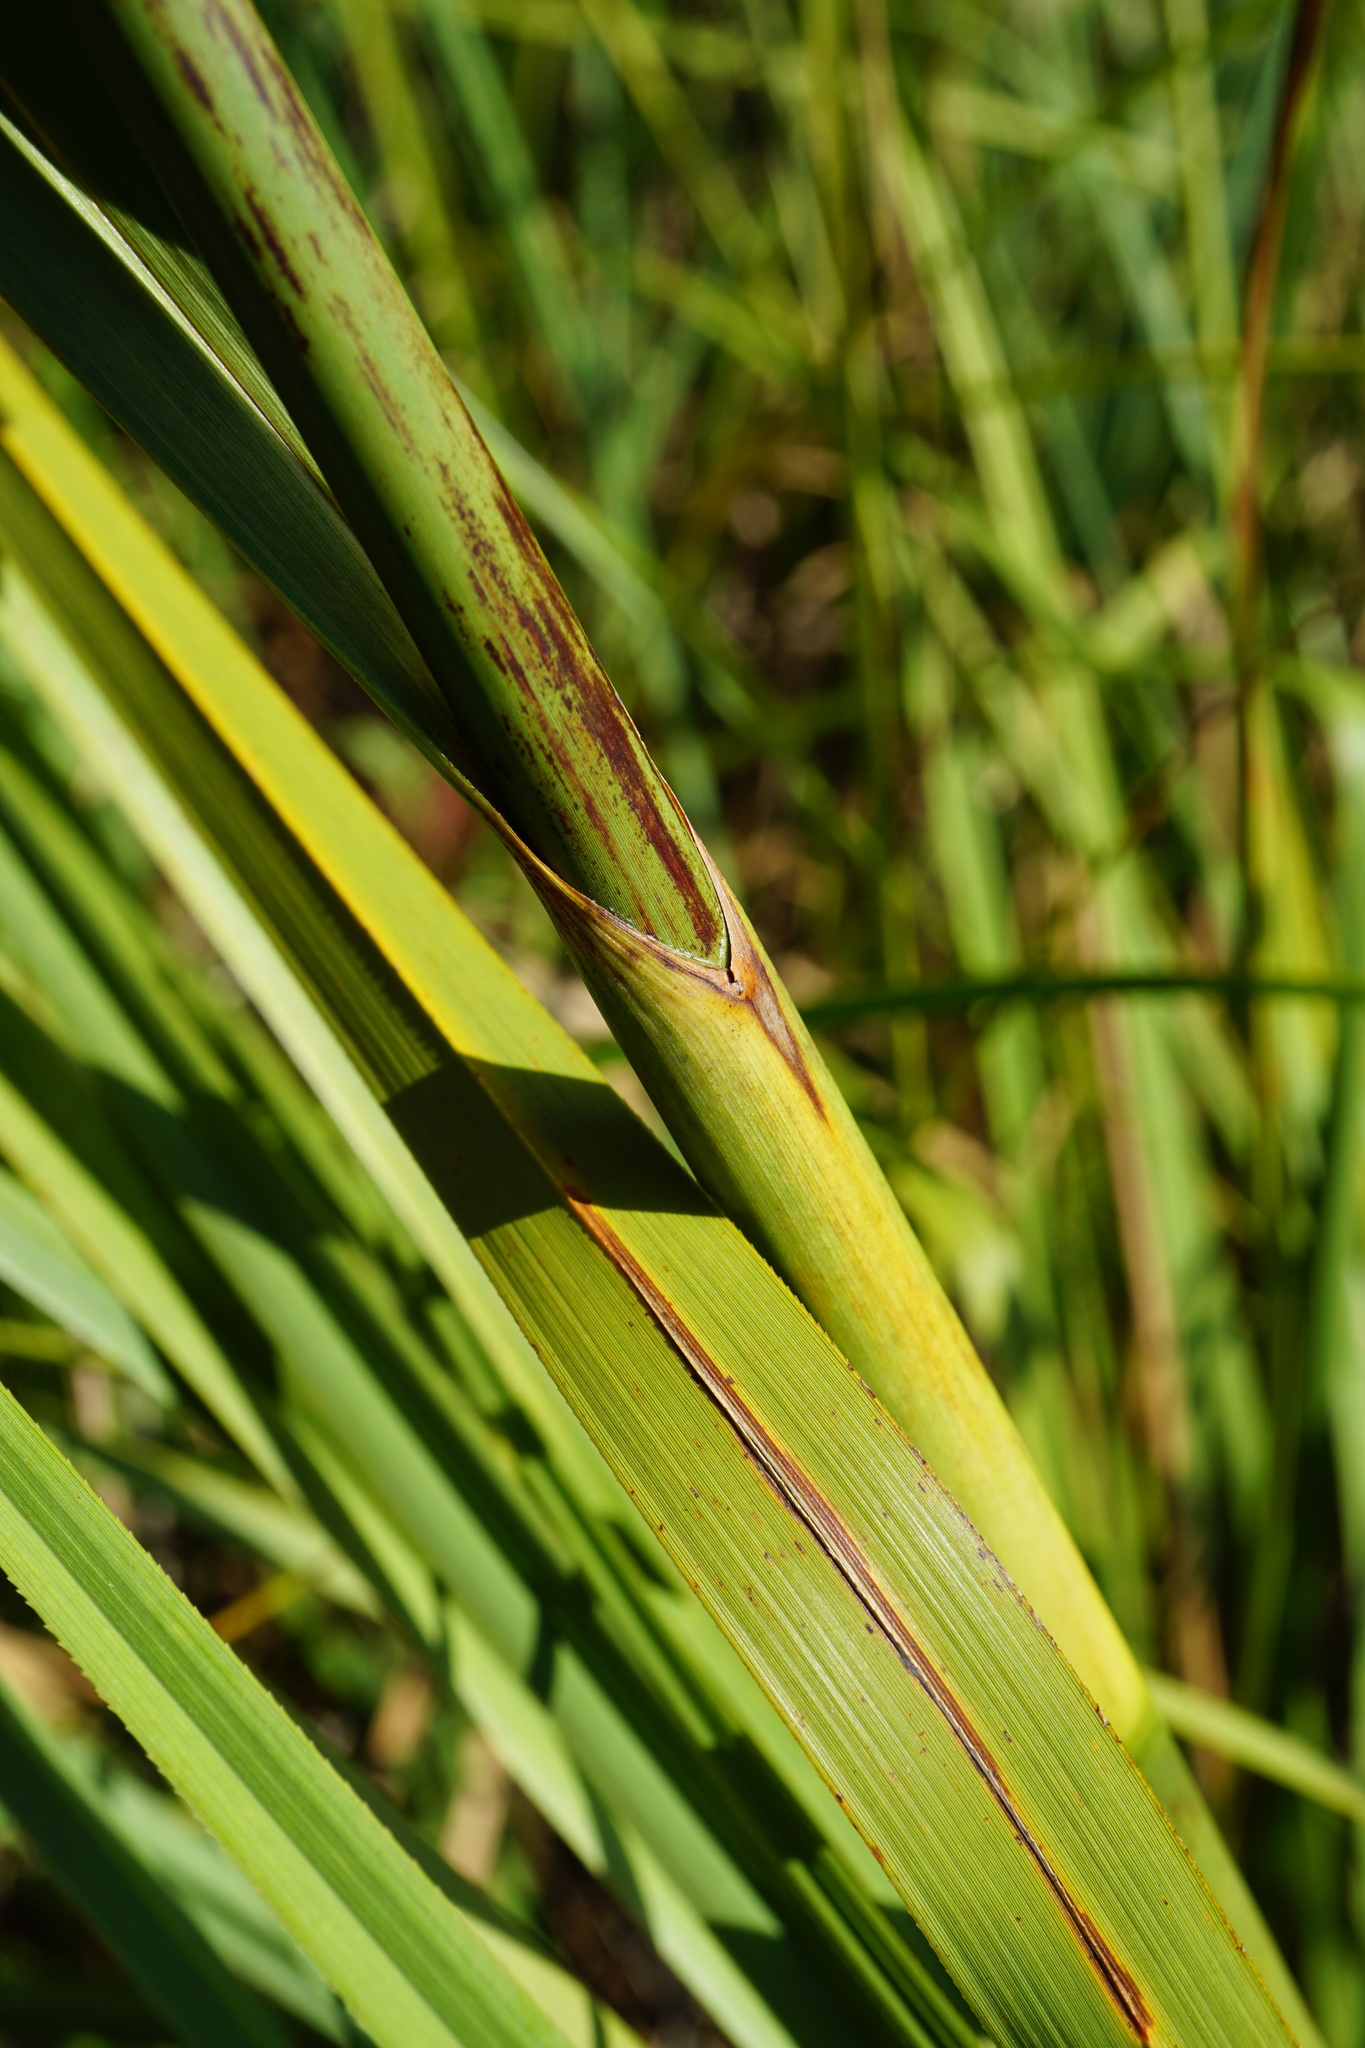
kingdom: Plantae
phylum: Tracheophyta
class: Liliopsida
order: Poales
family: Cyperaceae
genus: Cladium
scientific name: Cladium mariscus
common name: Great fen-sedge
